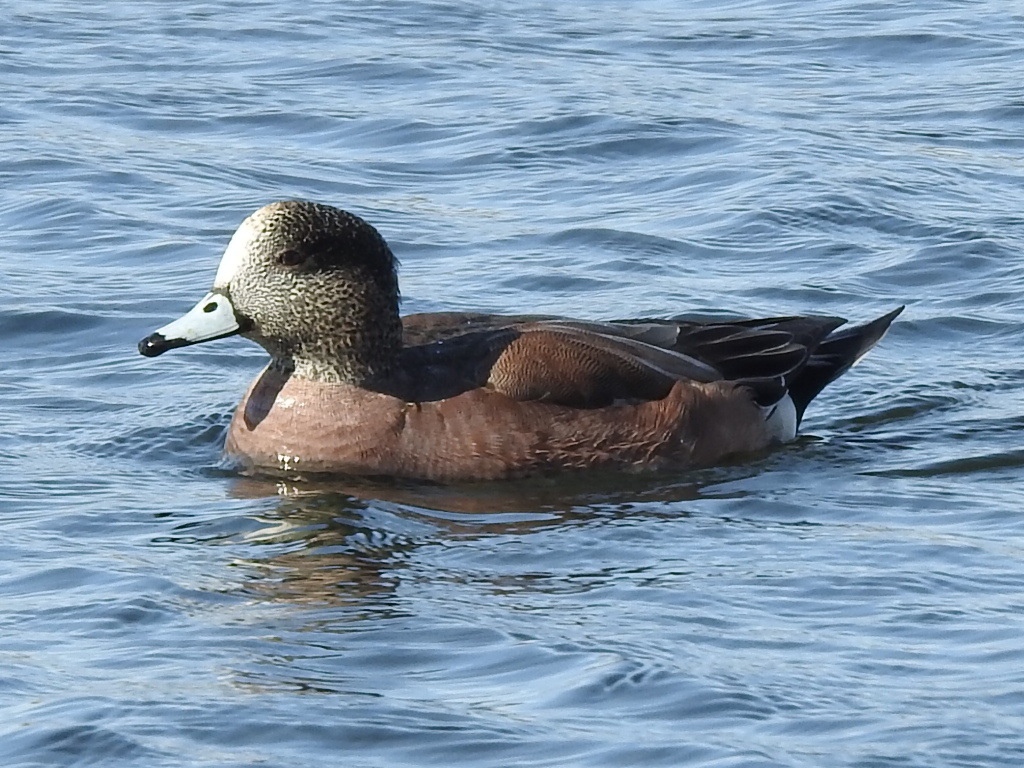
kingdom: Animalia
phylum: Chordata
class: Aves
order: Anseriformes
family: Anatidae
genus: Mareca
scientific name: Mareca americana
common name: American wigeon
